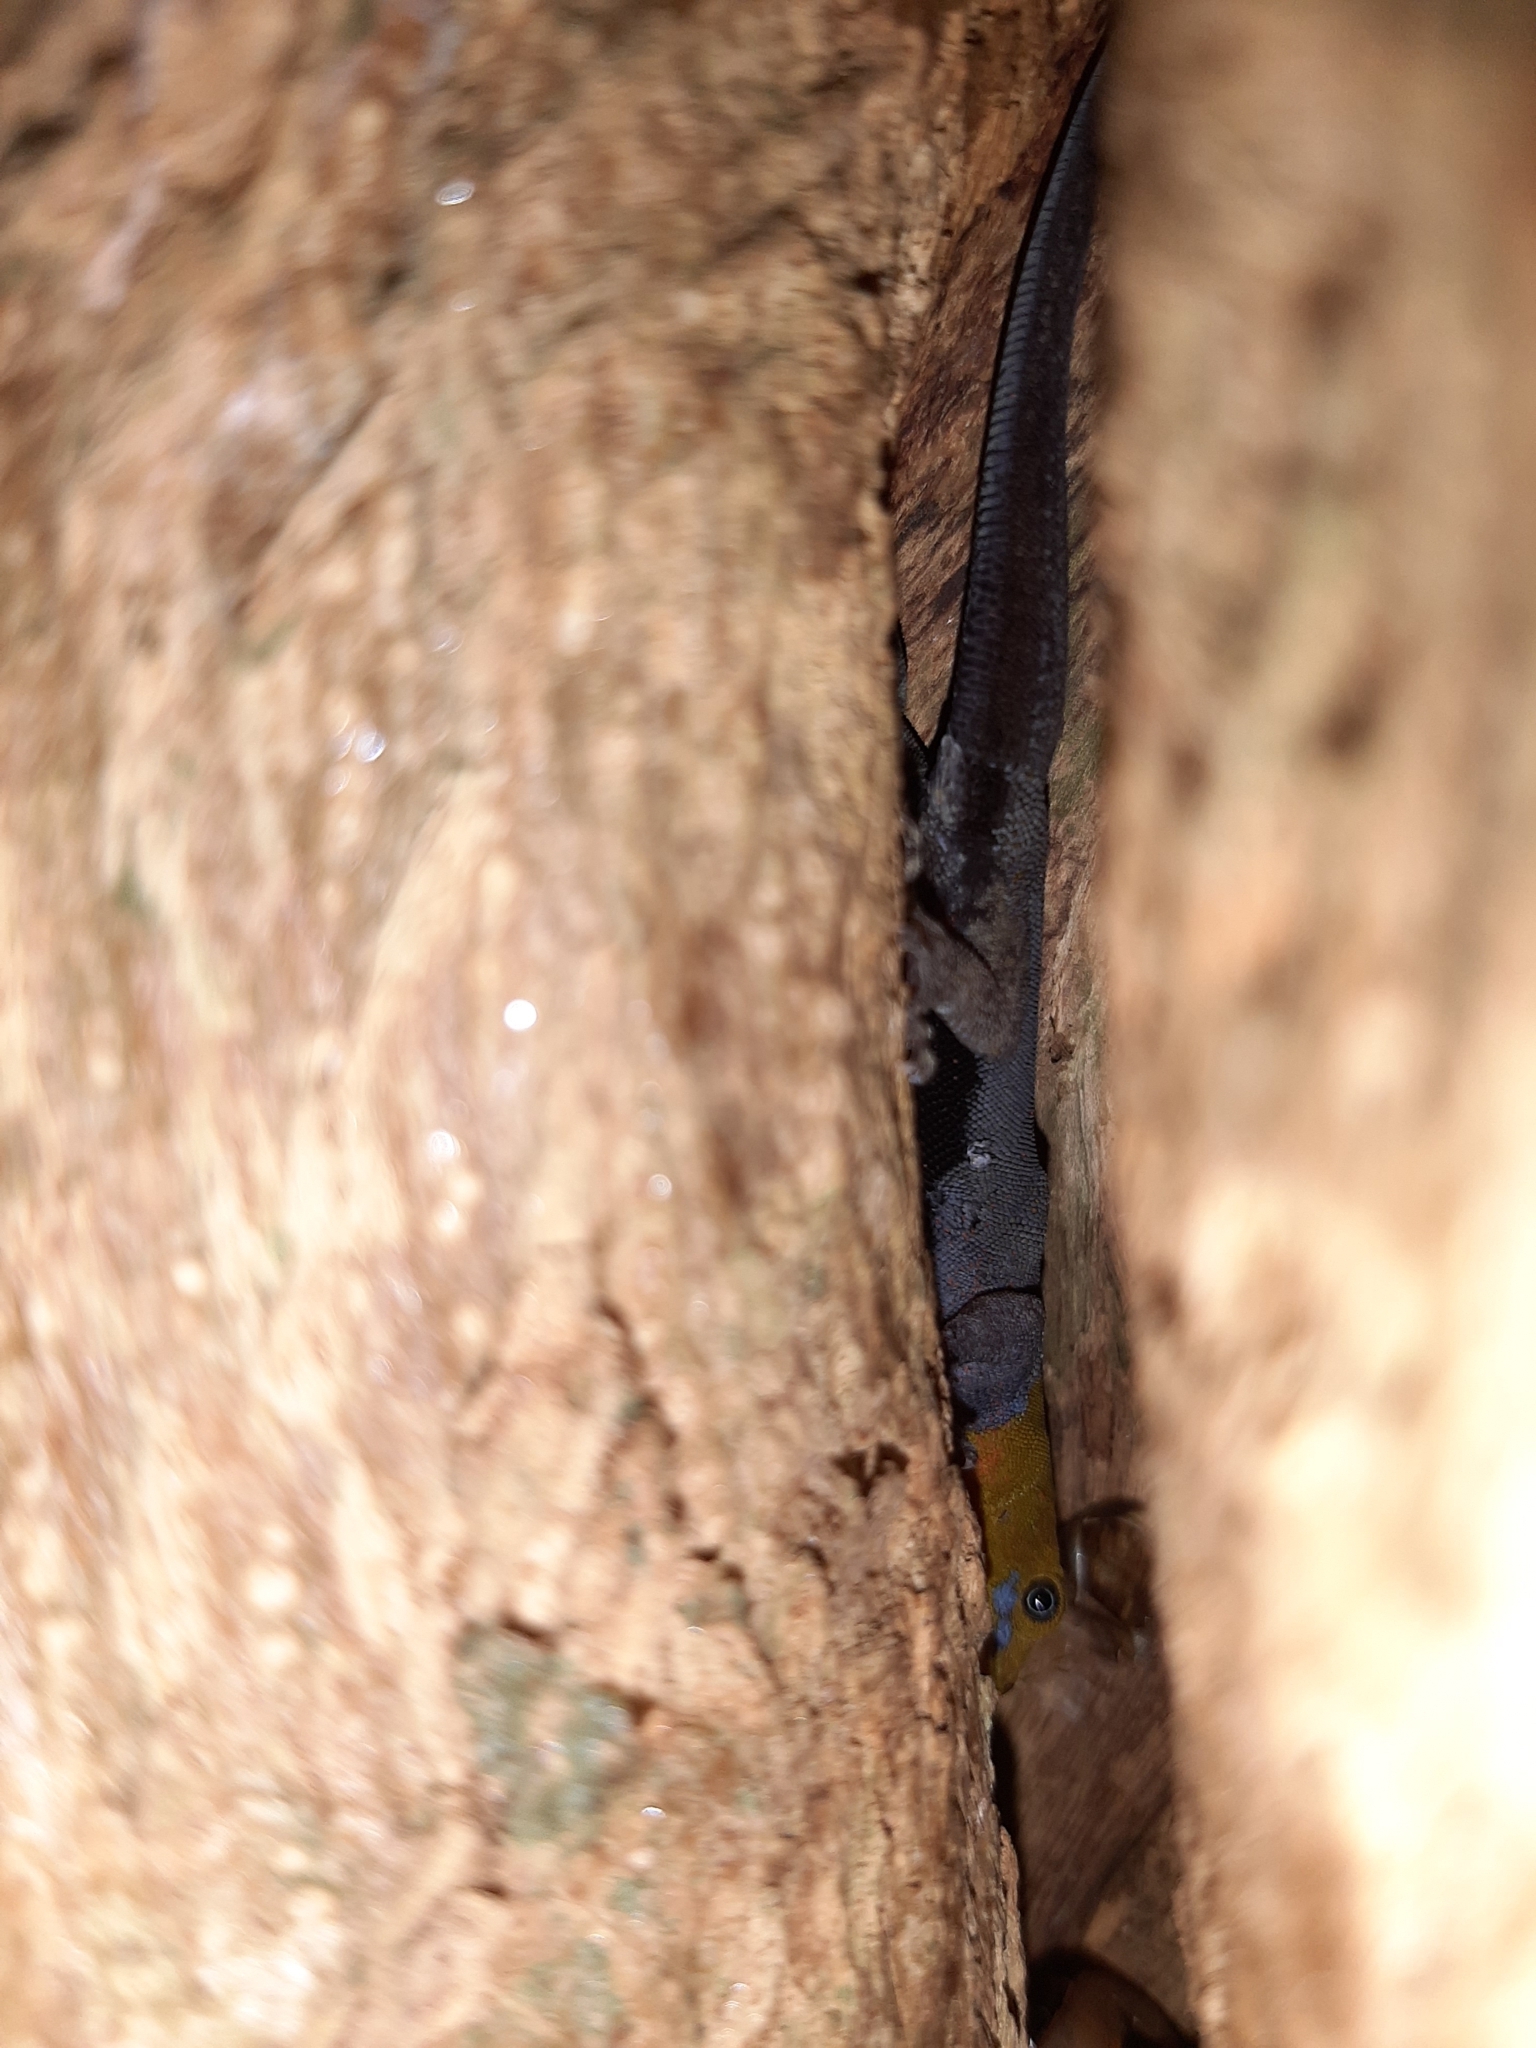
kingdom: Animalia
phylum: Chordata
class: Squamata
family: Sphaerodactylidae
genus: Gonatodes
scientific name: Gonatodes albogularis
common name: Yellow-headed gecko
